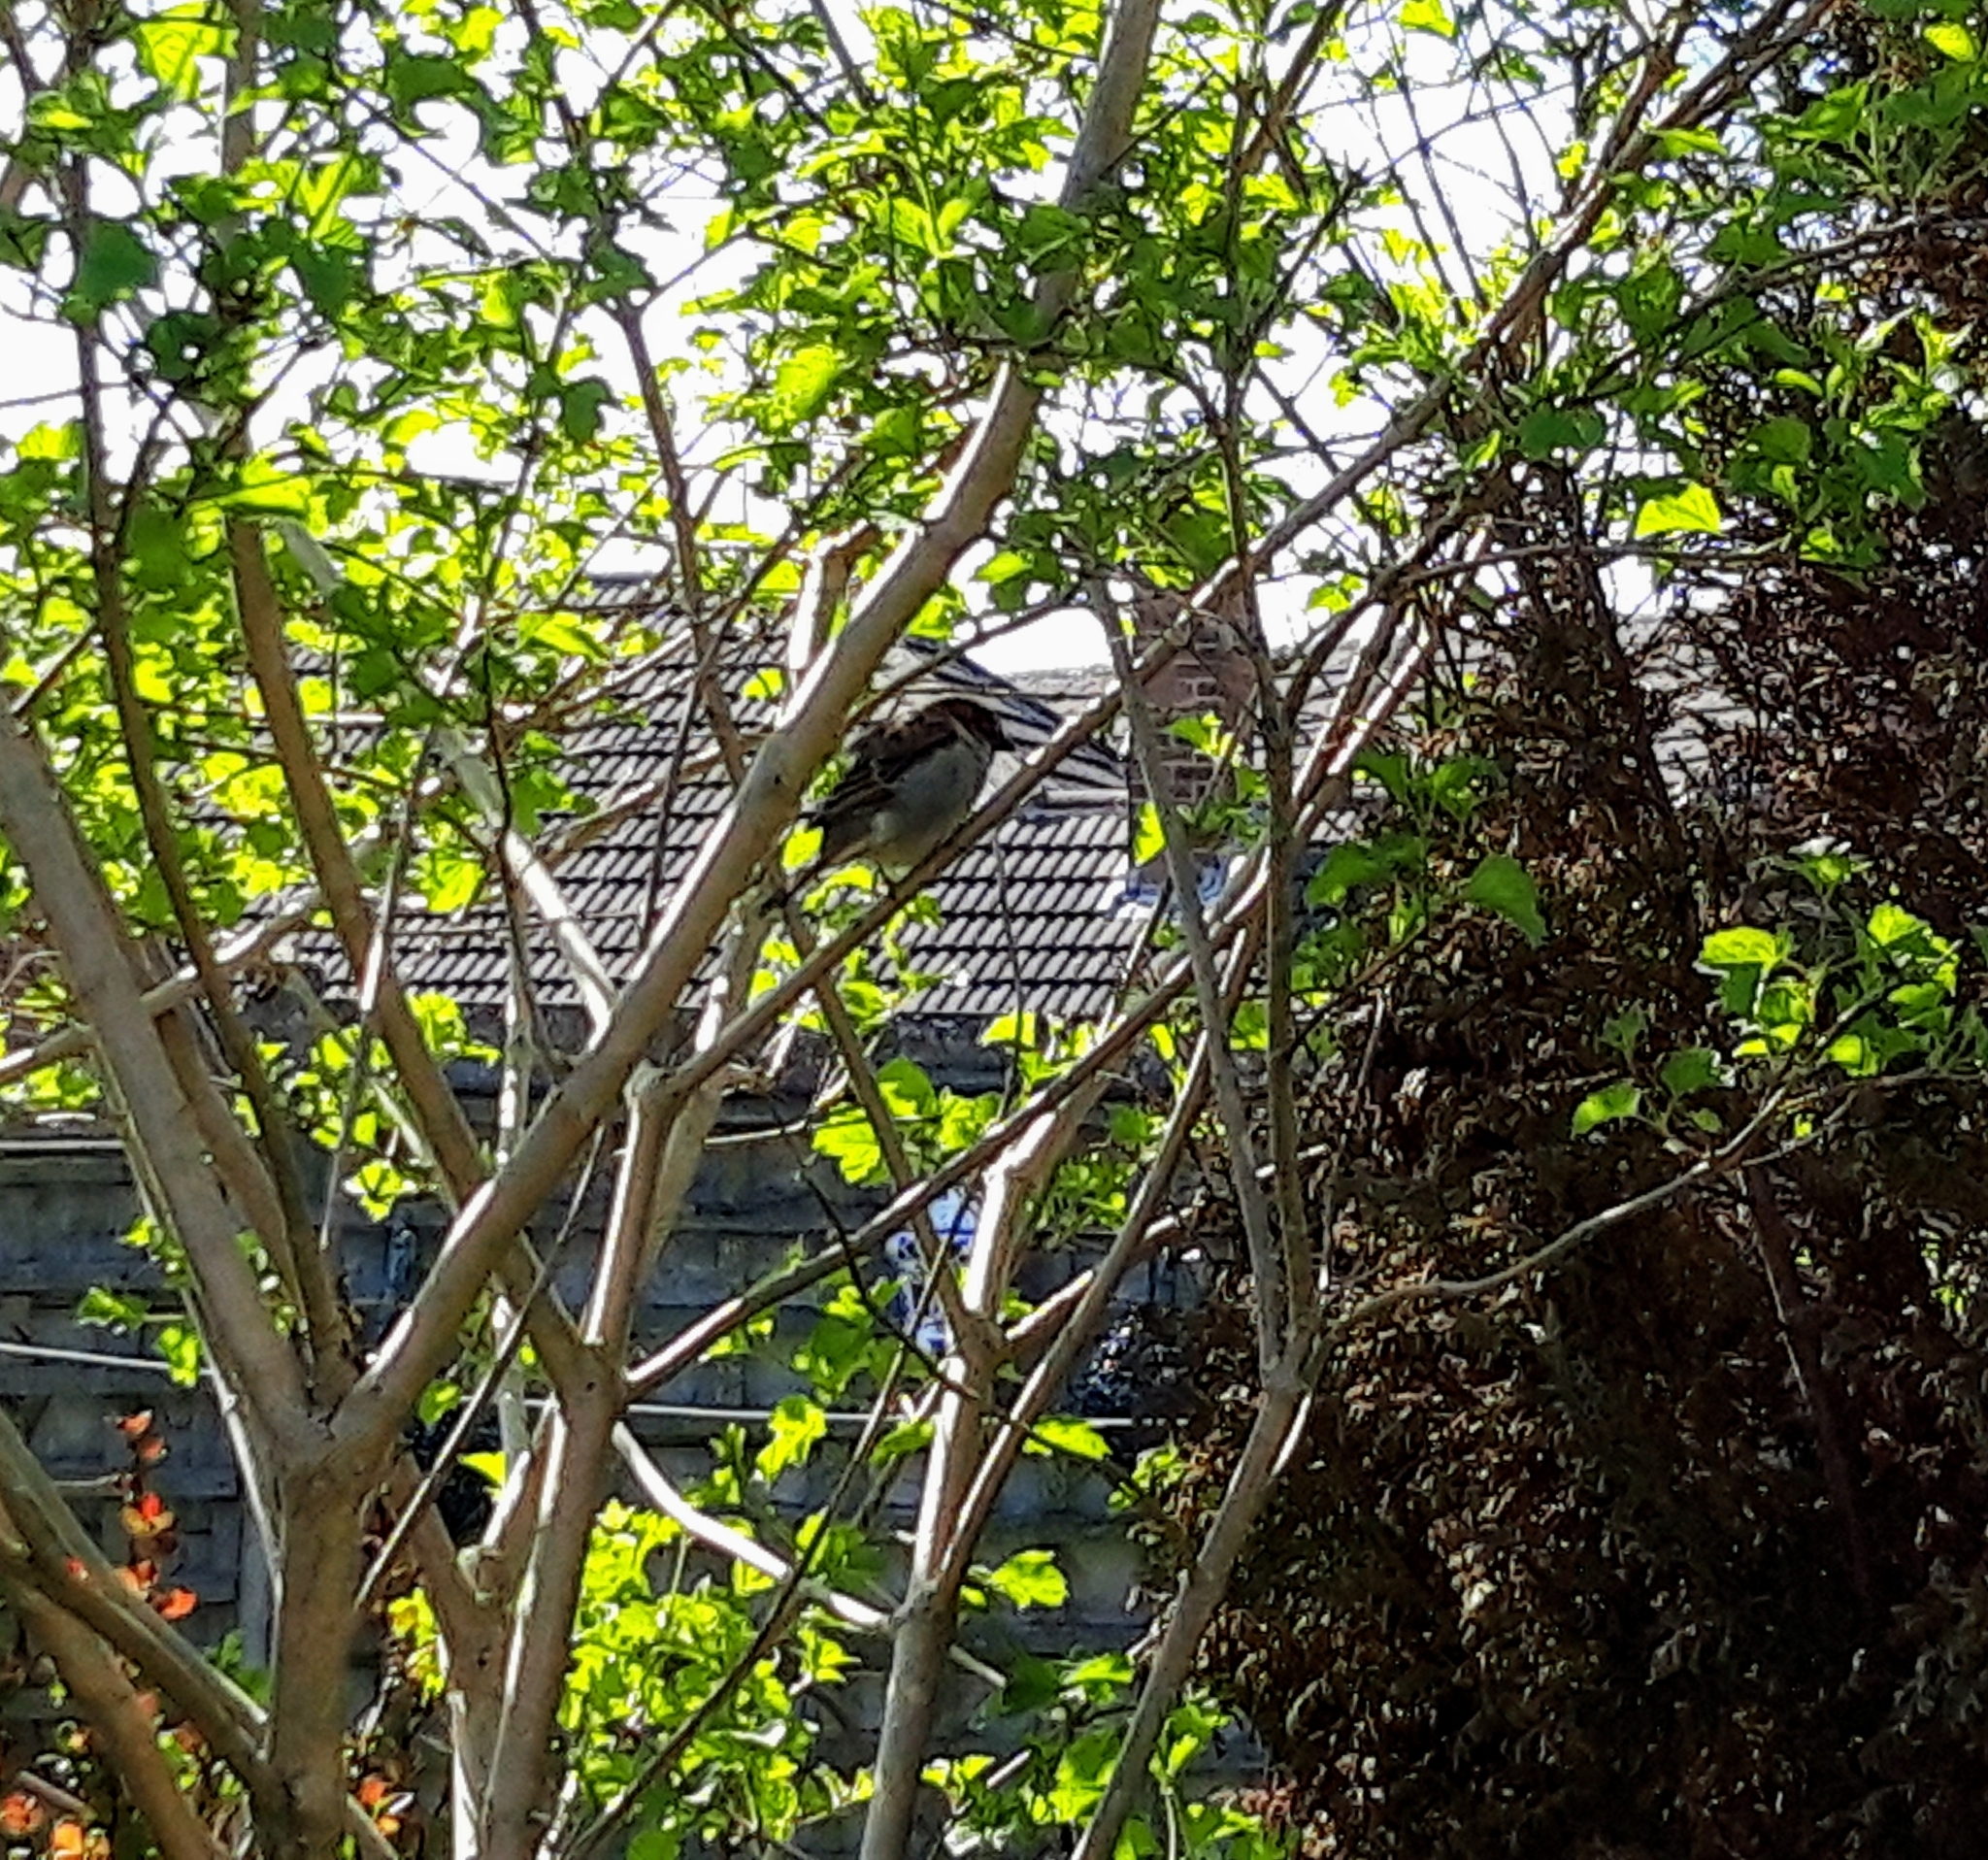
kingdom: Animalia
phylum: Chordata
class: Aves
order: Passeriformes
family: Passeridae
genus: Passer
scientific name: Passer domesticus
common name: House sparrow
